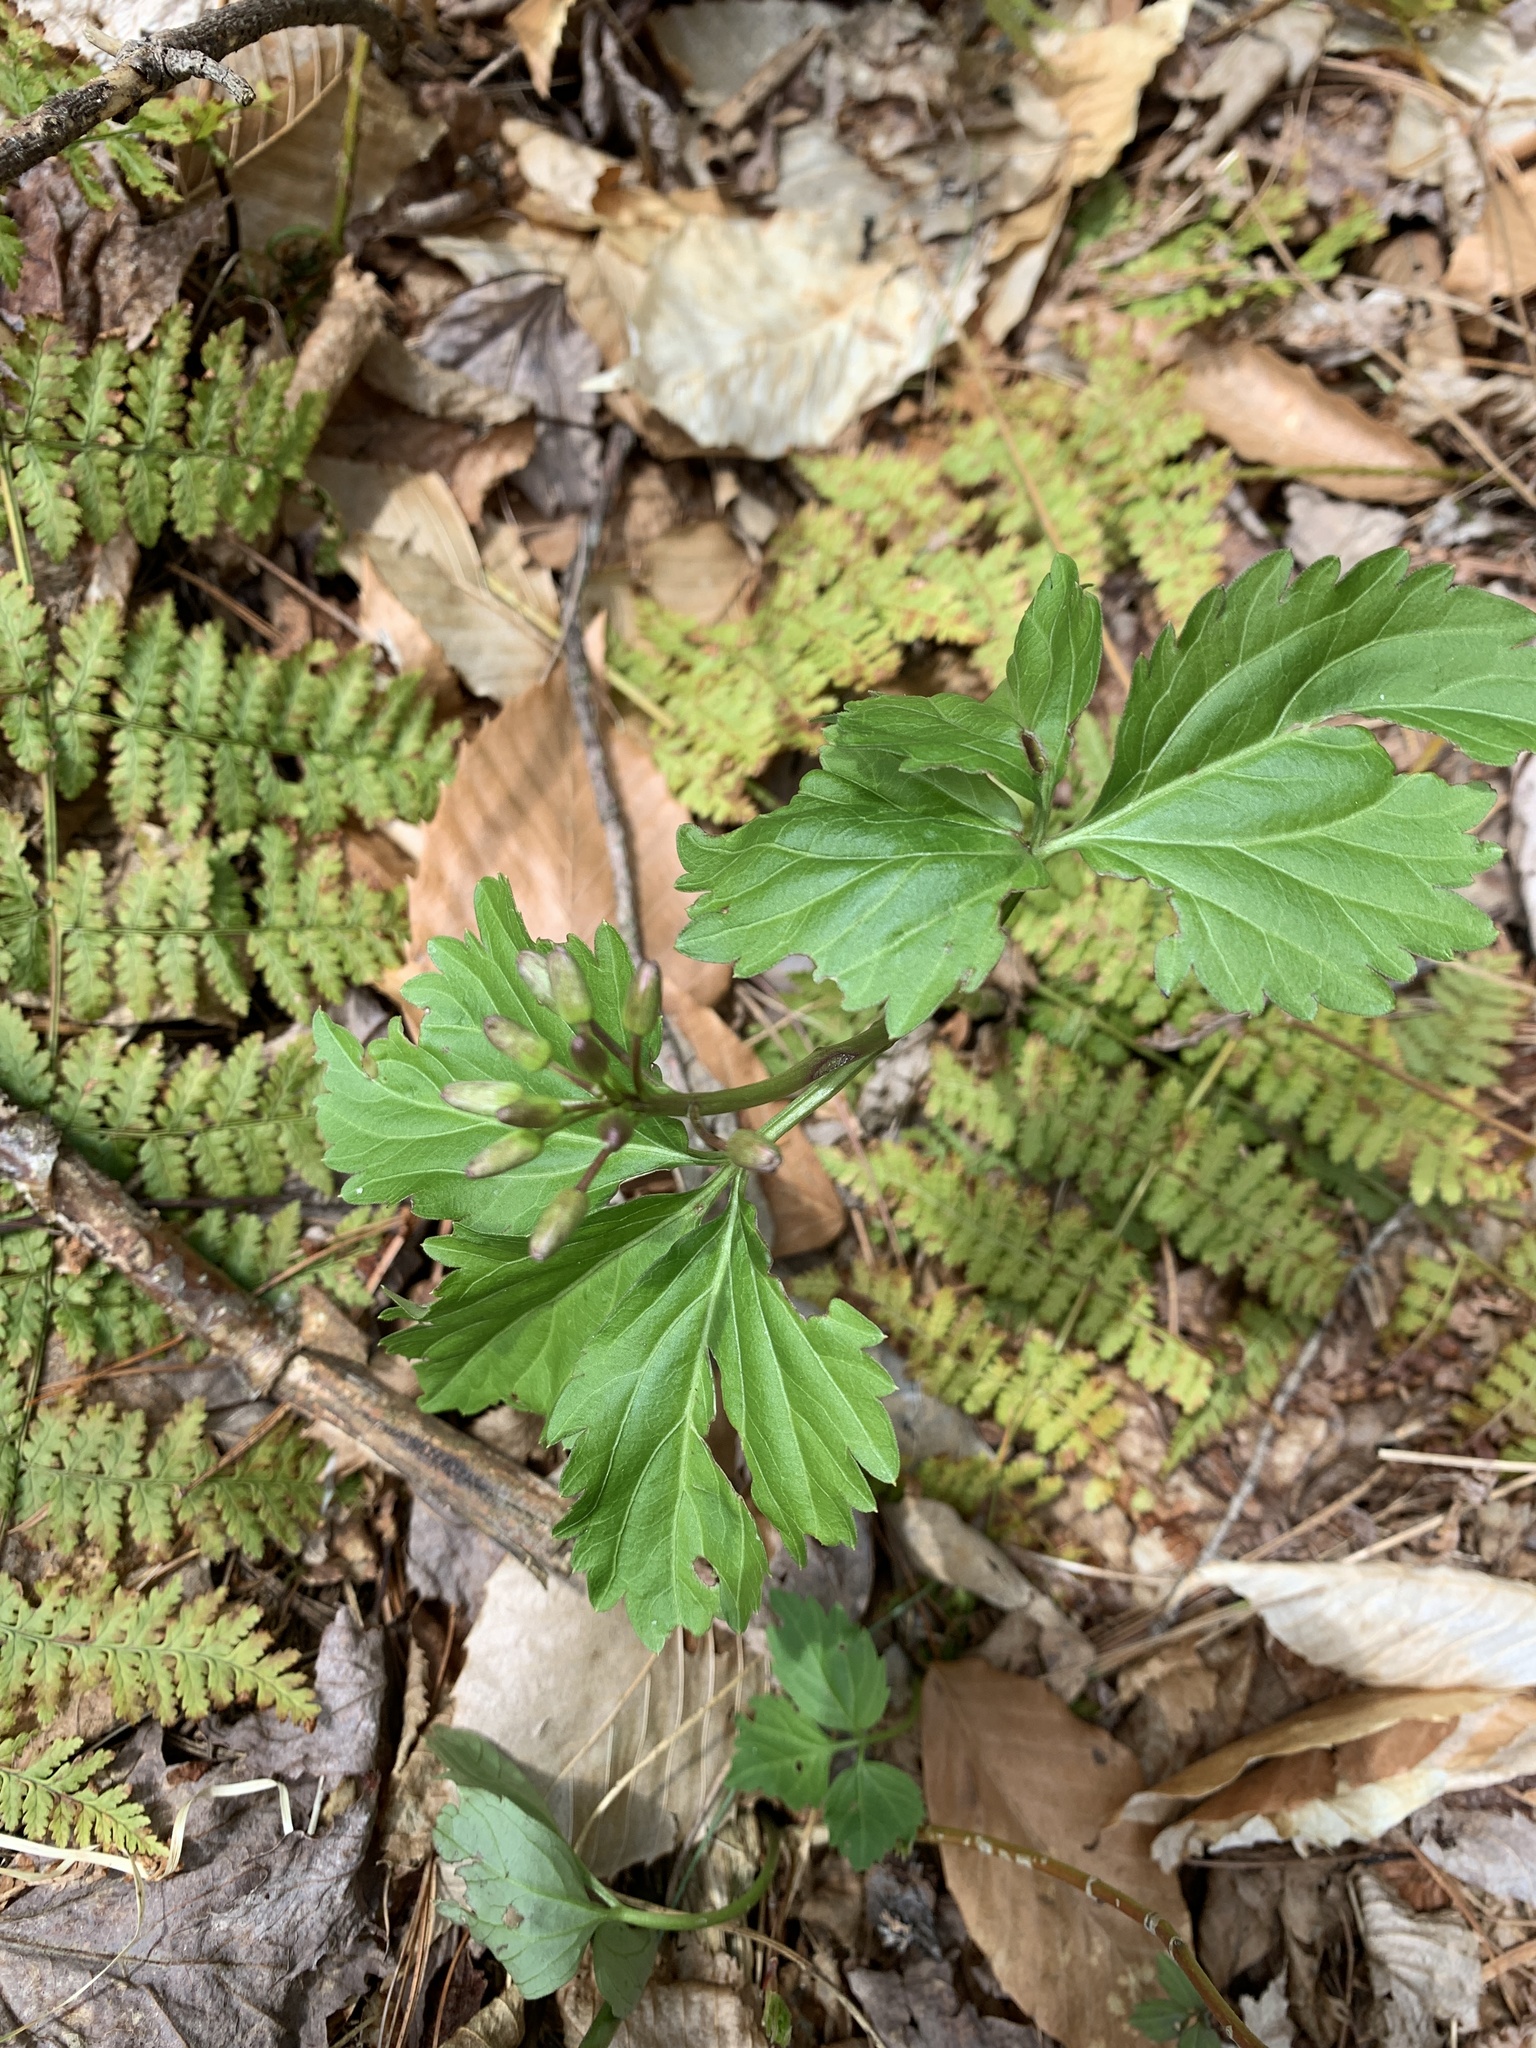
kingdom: Plantae
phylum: Tracheophyta
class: Magnoliopsida
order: Brassicales
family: Brassicaceae
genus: Cardamine
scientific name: Cardamine diphylla
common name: Broad-leaved toothwort
